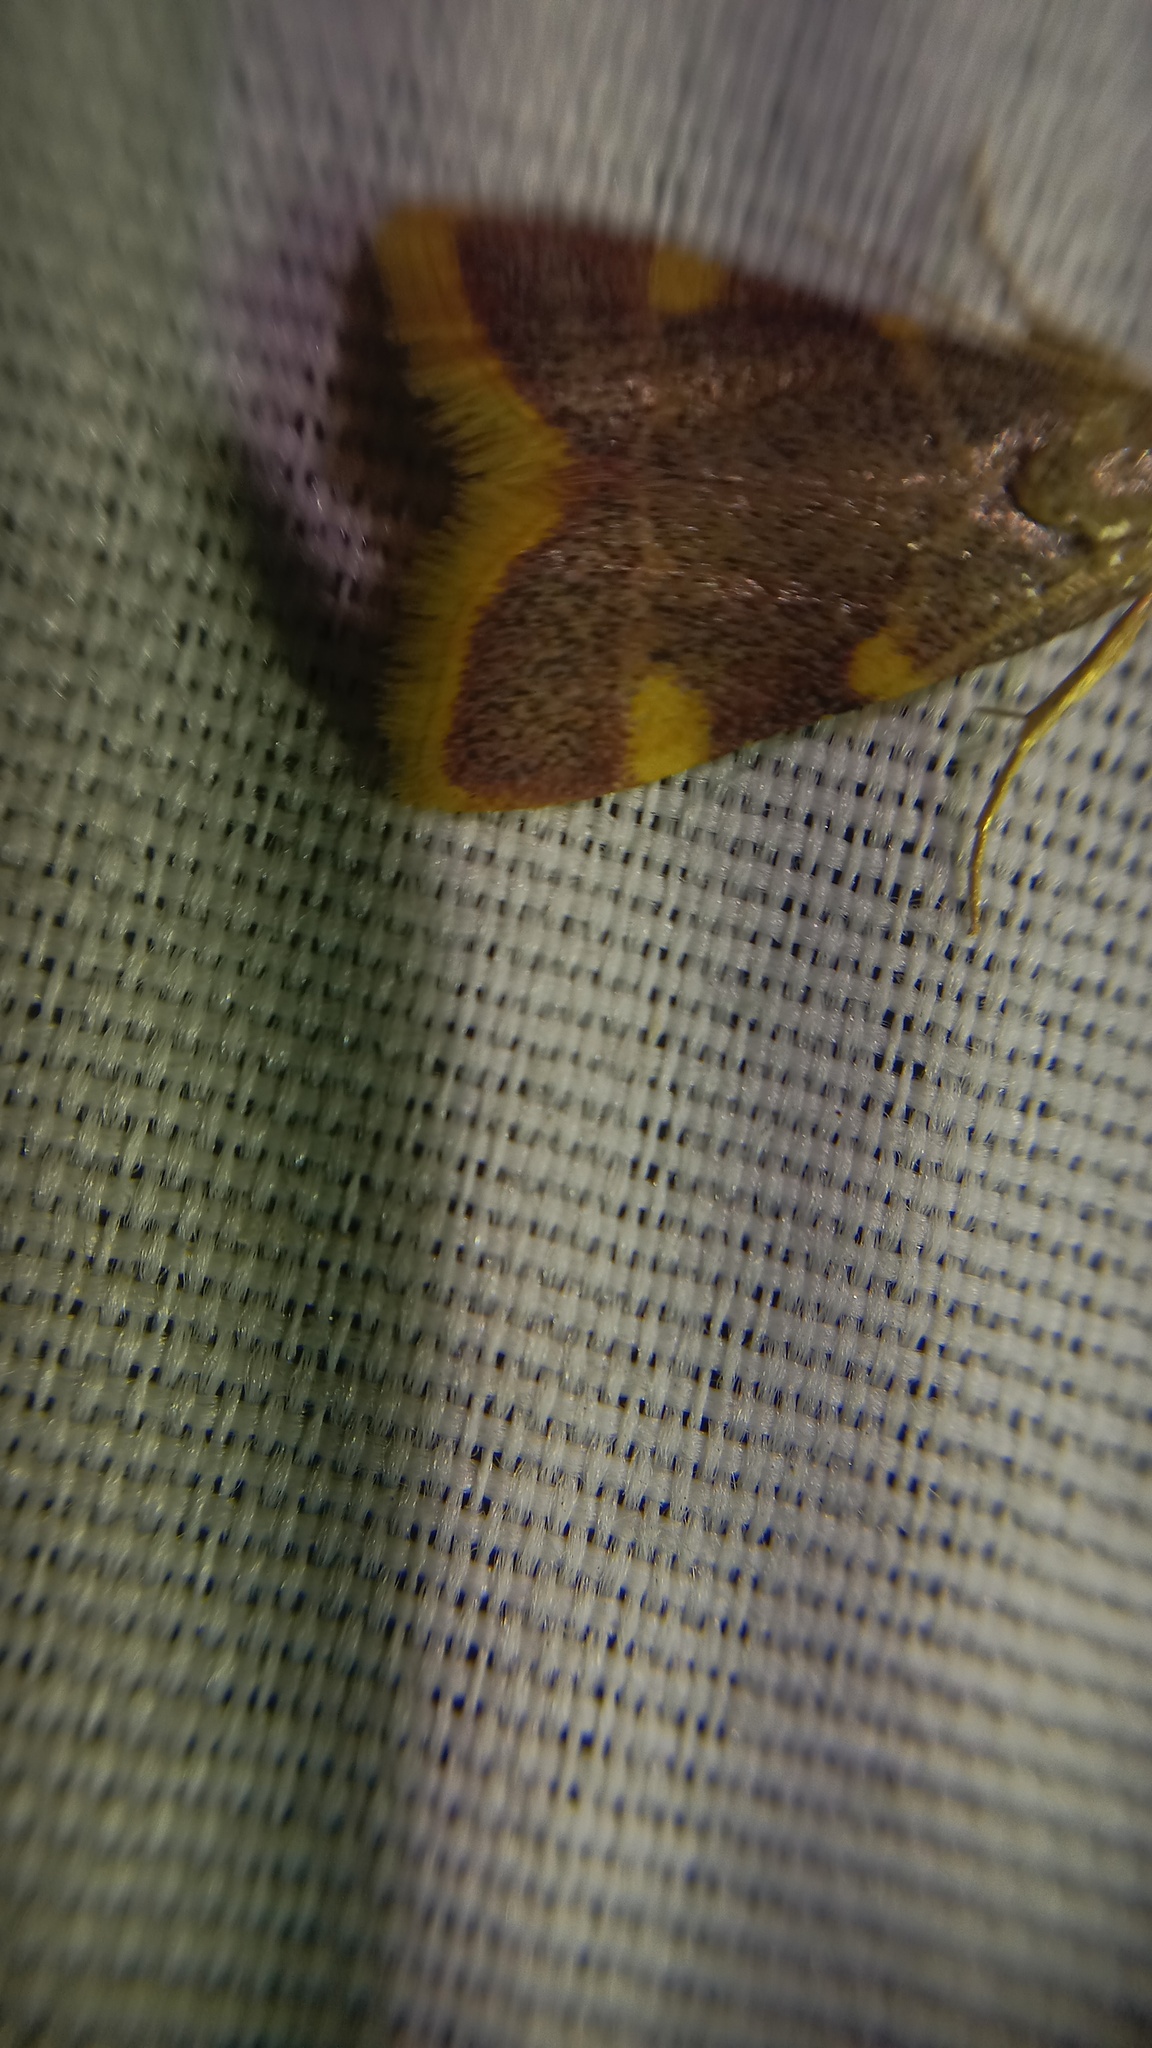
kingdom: Animalia
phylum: Arthropoda
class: Insecta
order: Lepidoptera
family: Pyralidae
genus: Hypsopygia
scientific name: Hypsopygia costalis
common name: Gold triangle
